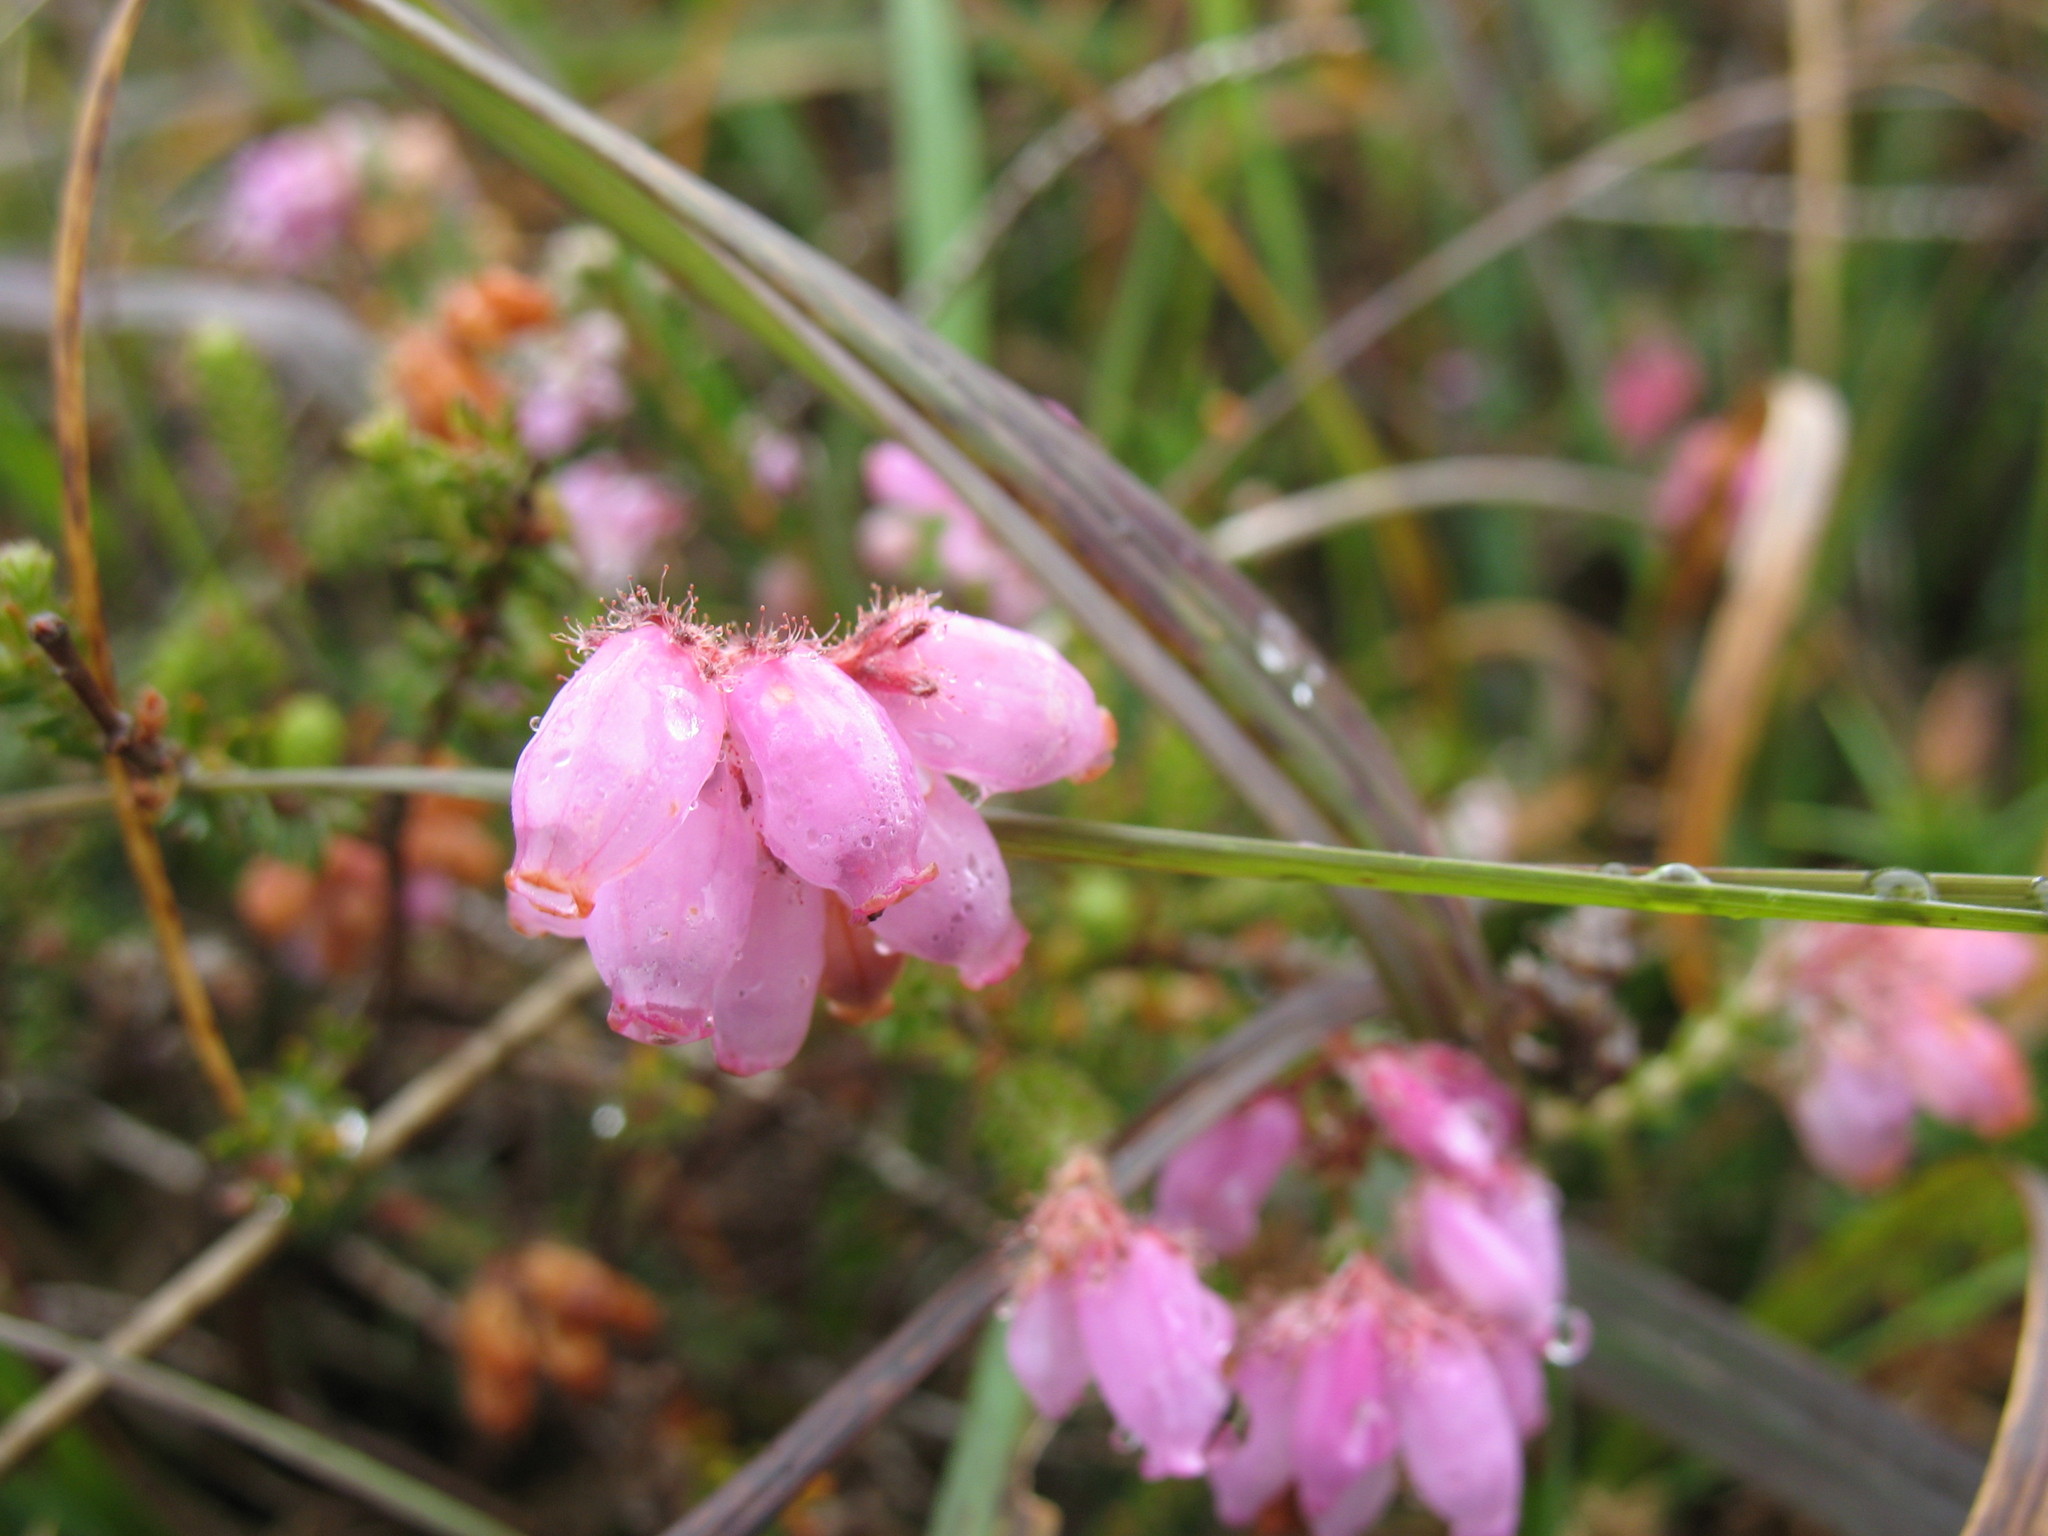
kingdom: Plantae
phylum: Tracheophyta
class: Magnoliopsida
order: Ericales
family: Ericaceae
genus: Erica
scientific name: Erica tetralix
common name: Cross-leaved heath
